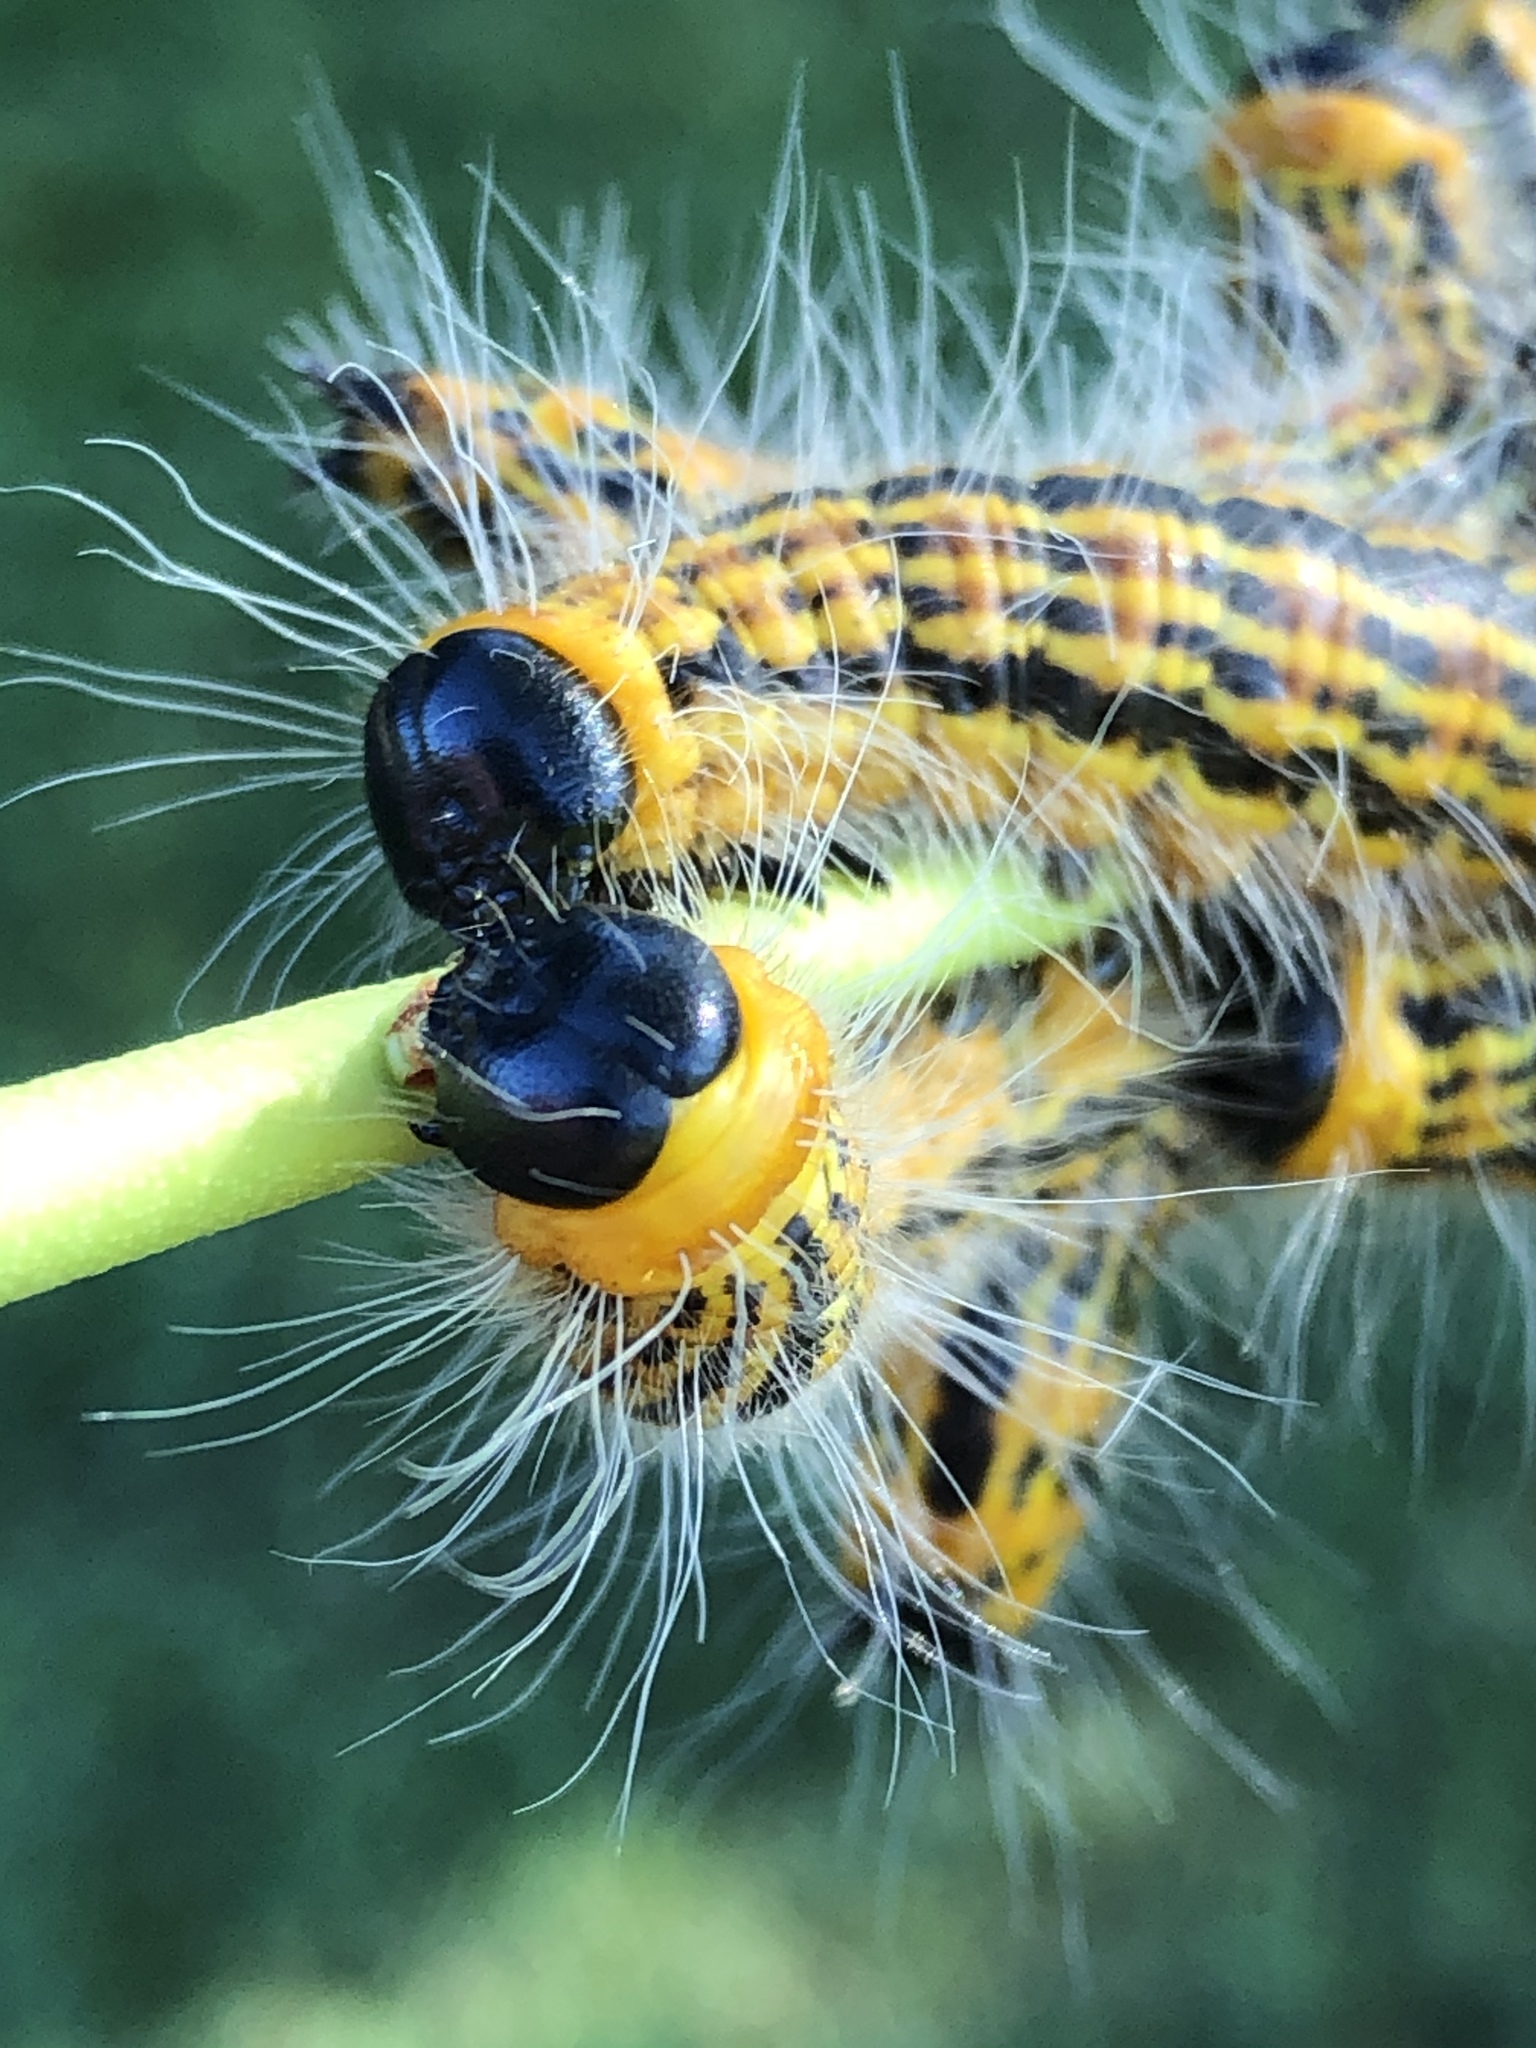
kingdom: Animalia
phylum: Arthropoda
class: Insecta
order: Lepidoptera
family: Notodontidae
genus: Datana
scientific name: Datana drexelii
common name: Drexel's datana
